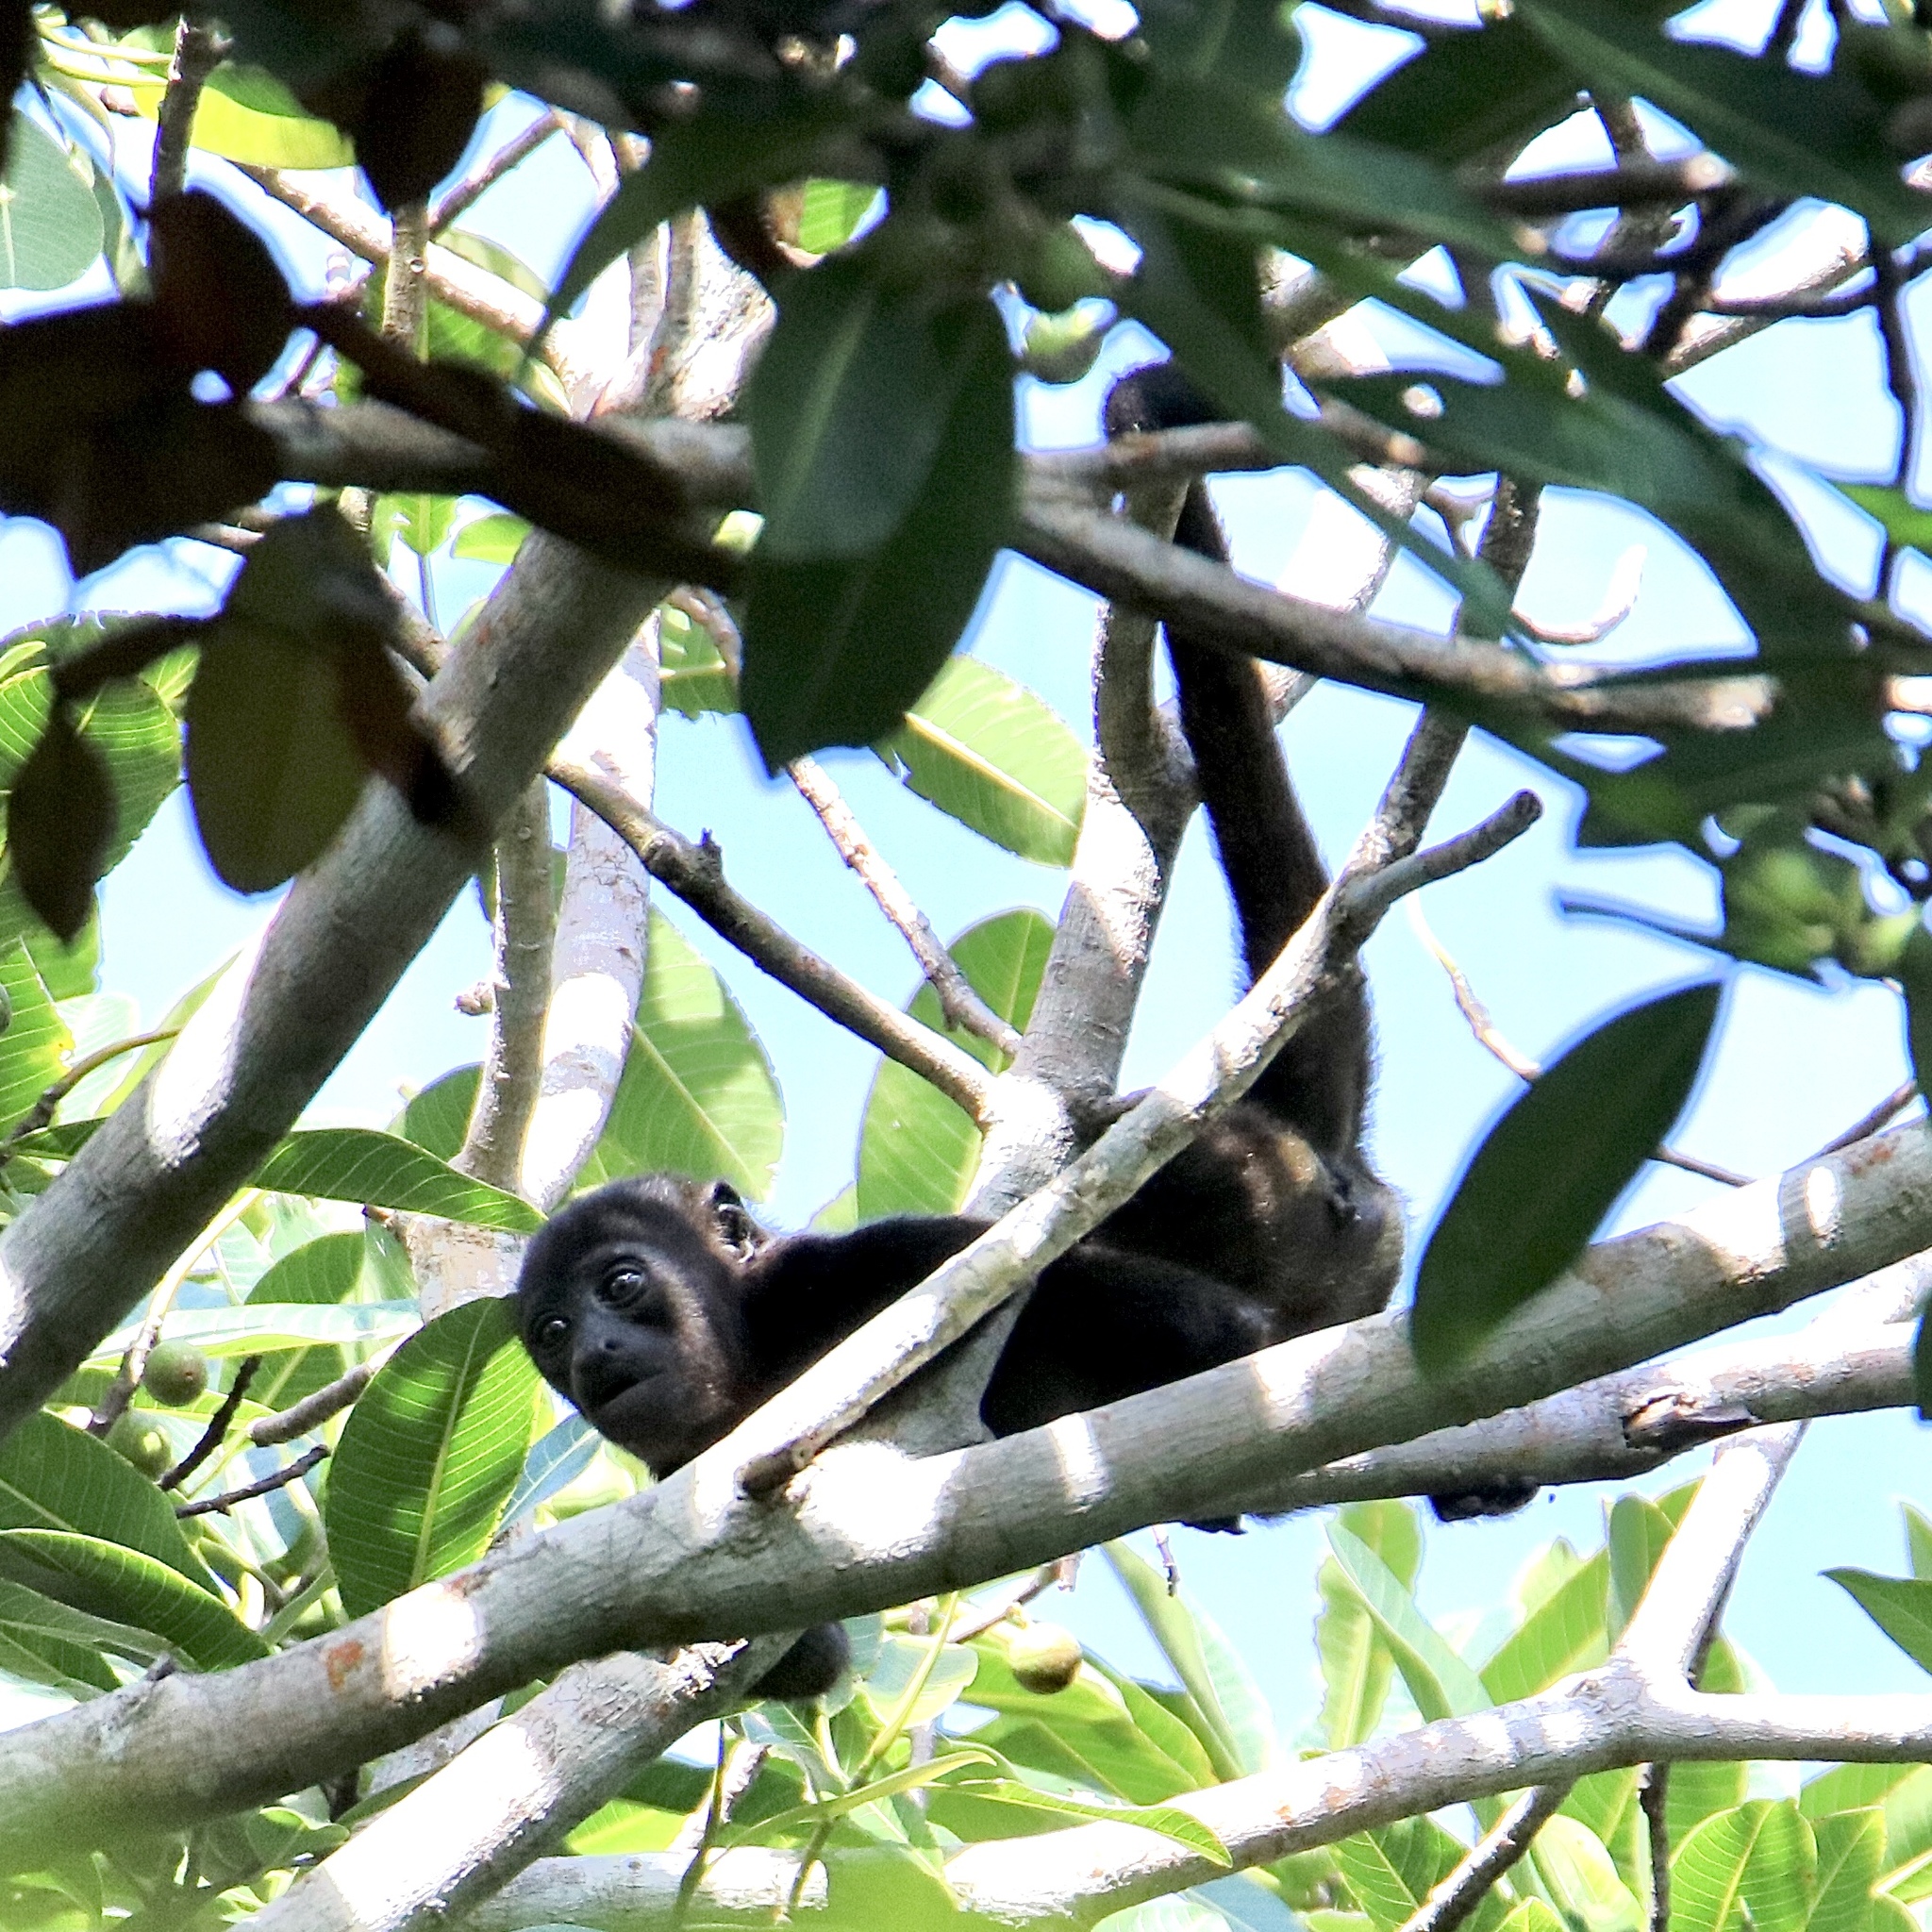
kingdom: Animalia
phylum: Chordata
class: Mammalia
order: Primates
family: Atelidae
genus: Alouatta
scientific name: Alouatta palliata
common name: Mantled howler
